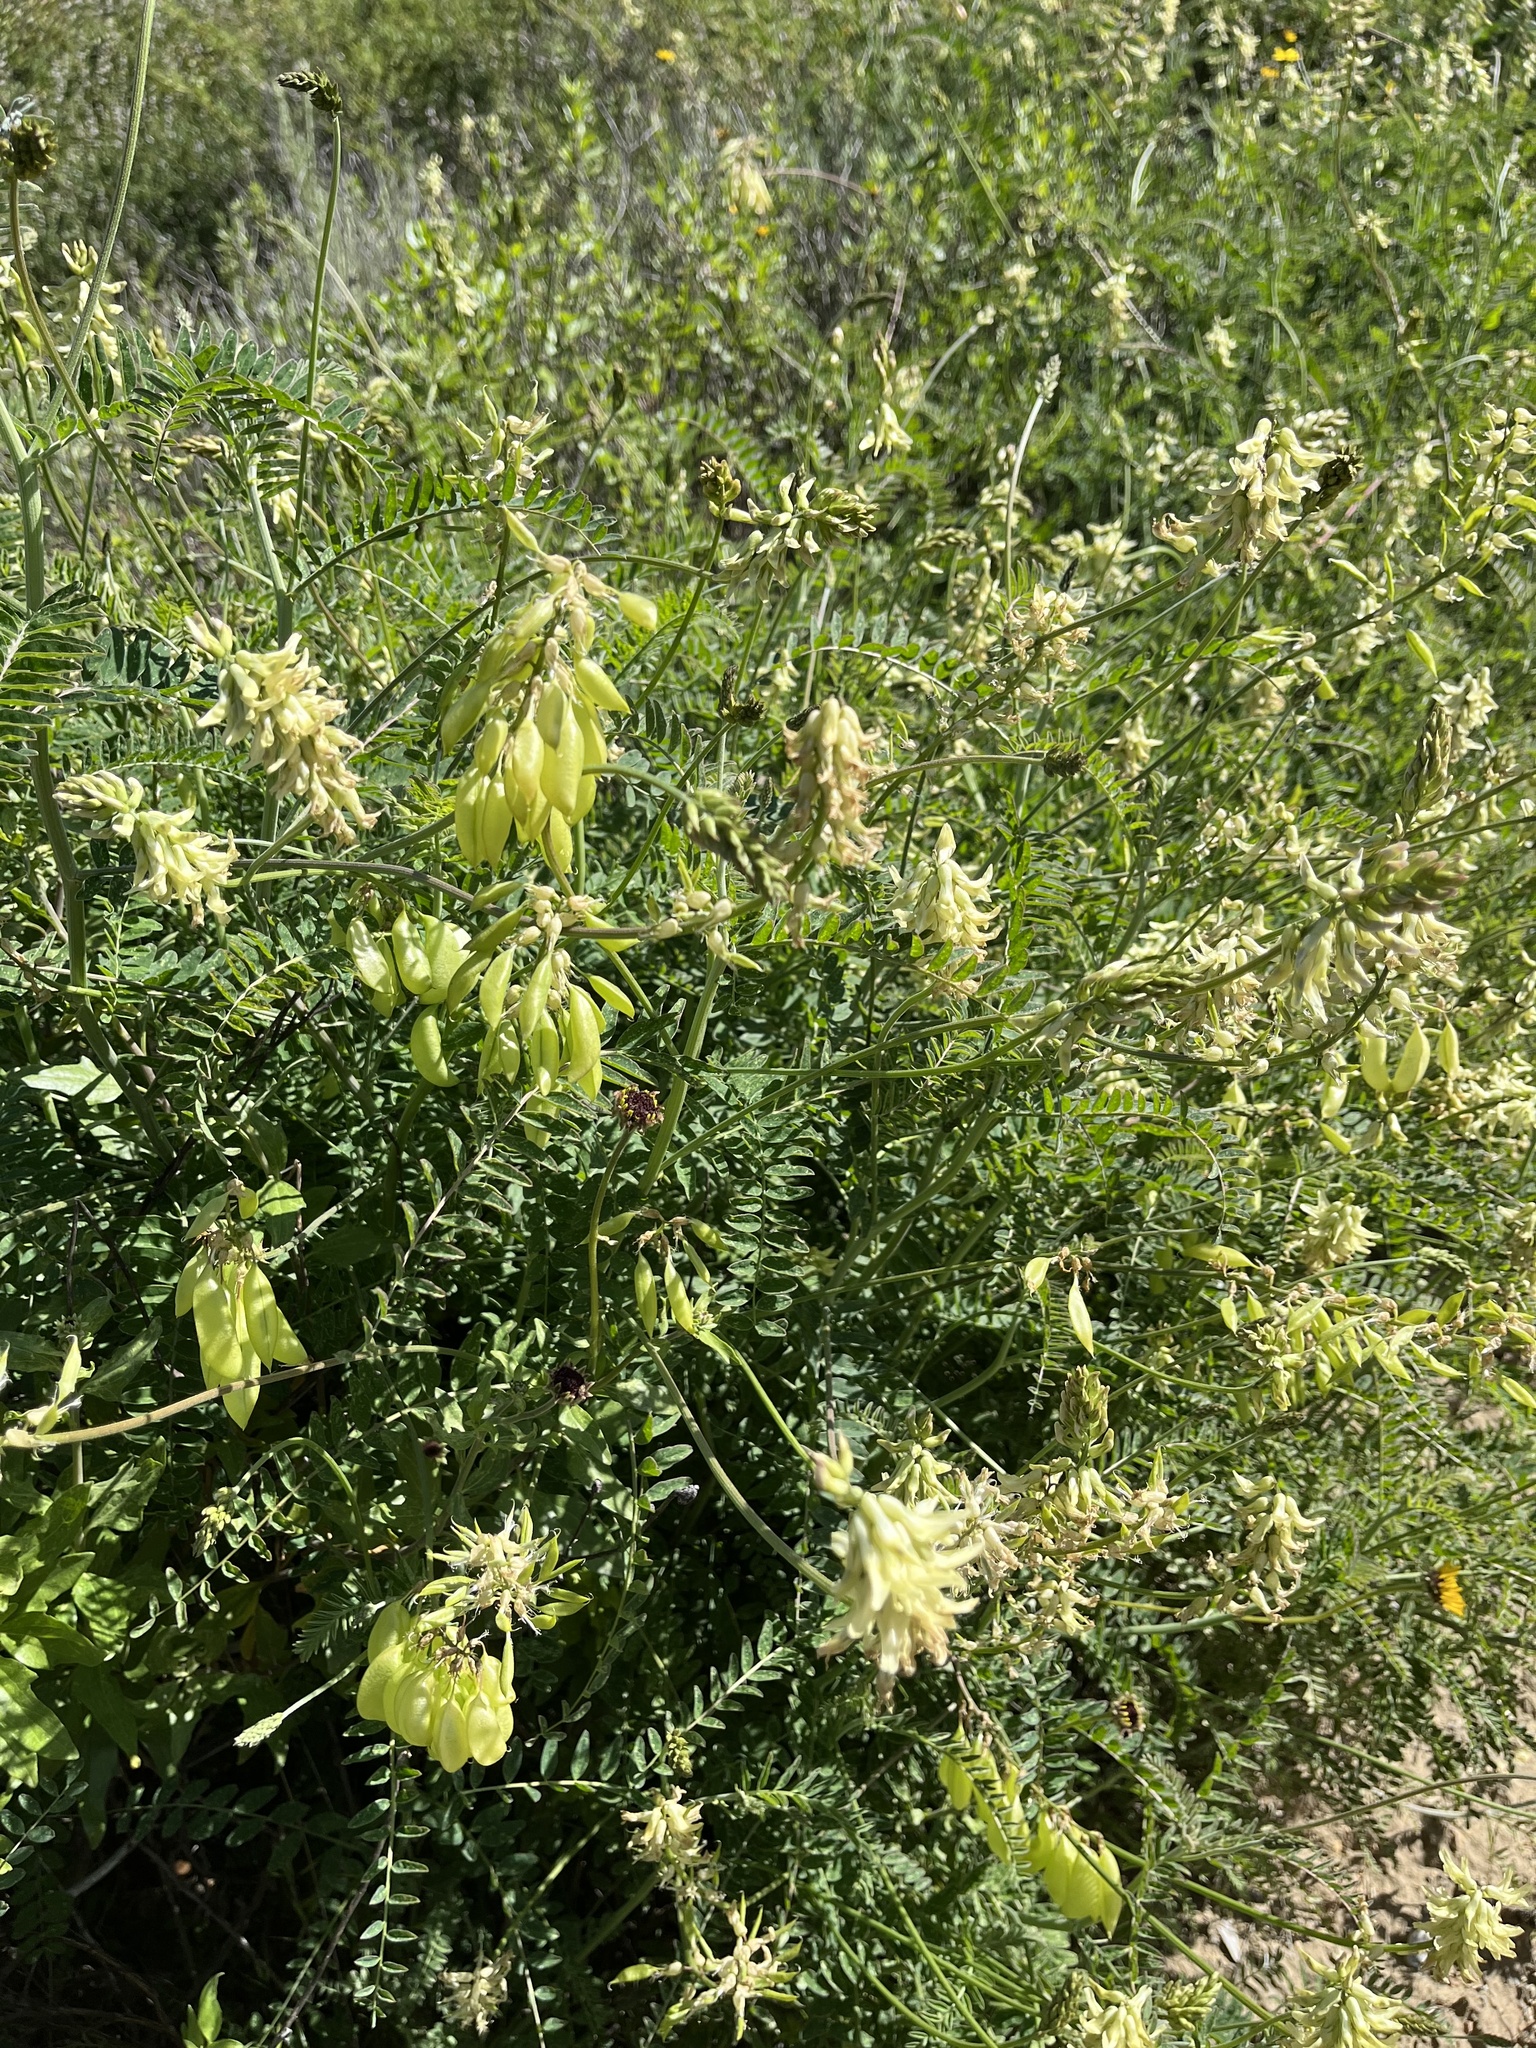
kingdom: Plantae
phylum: Tracheophyta
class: Magnoliopsida
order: Fabales
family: Fabaceae
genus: Astragalus
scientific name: Astragalus trichopodus
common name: Santa barbara milk-vetch
